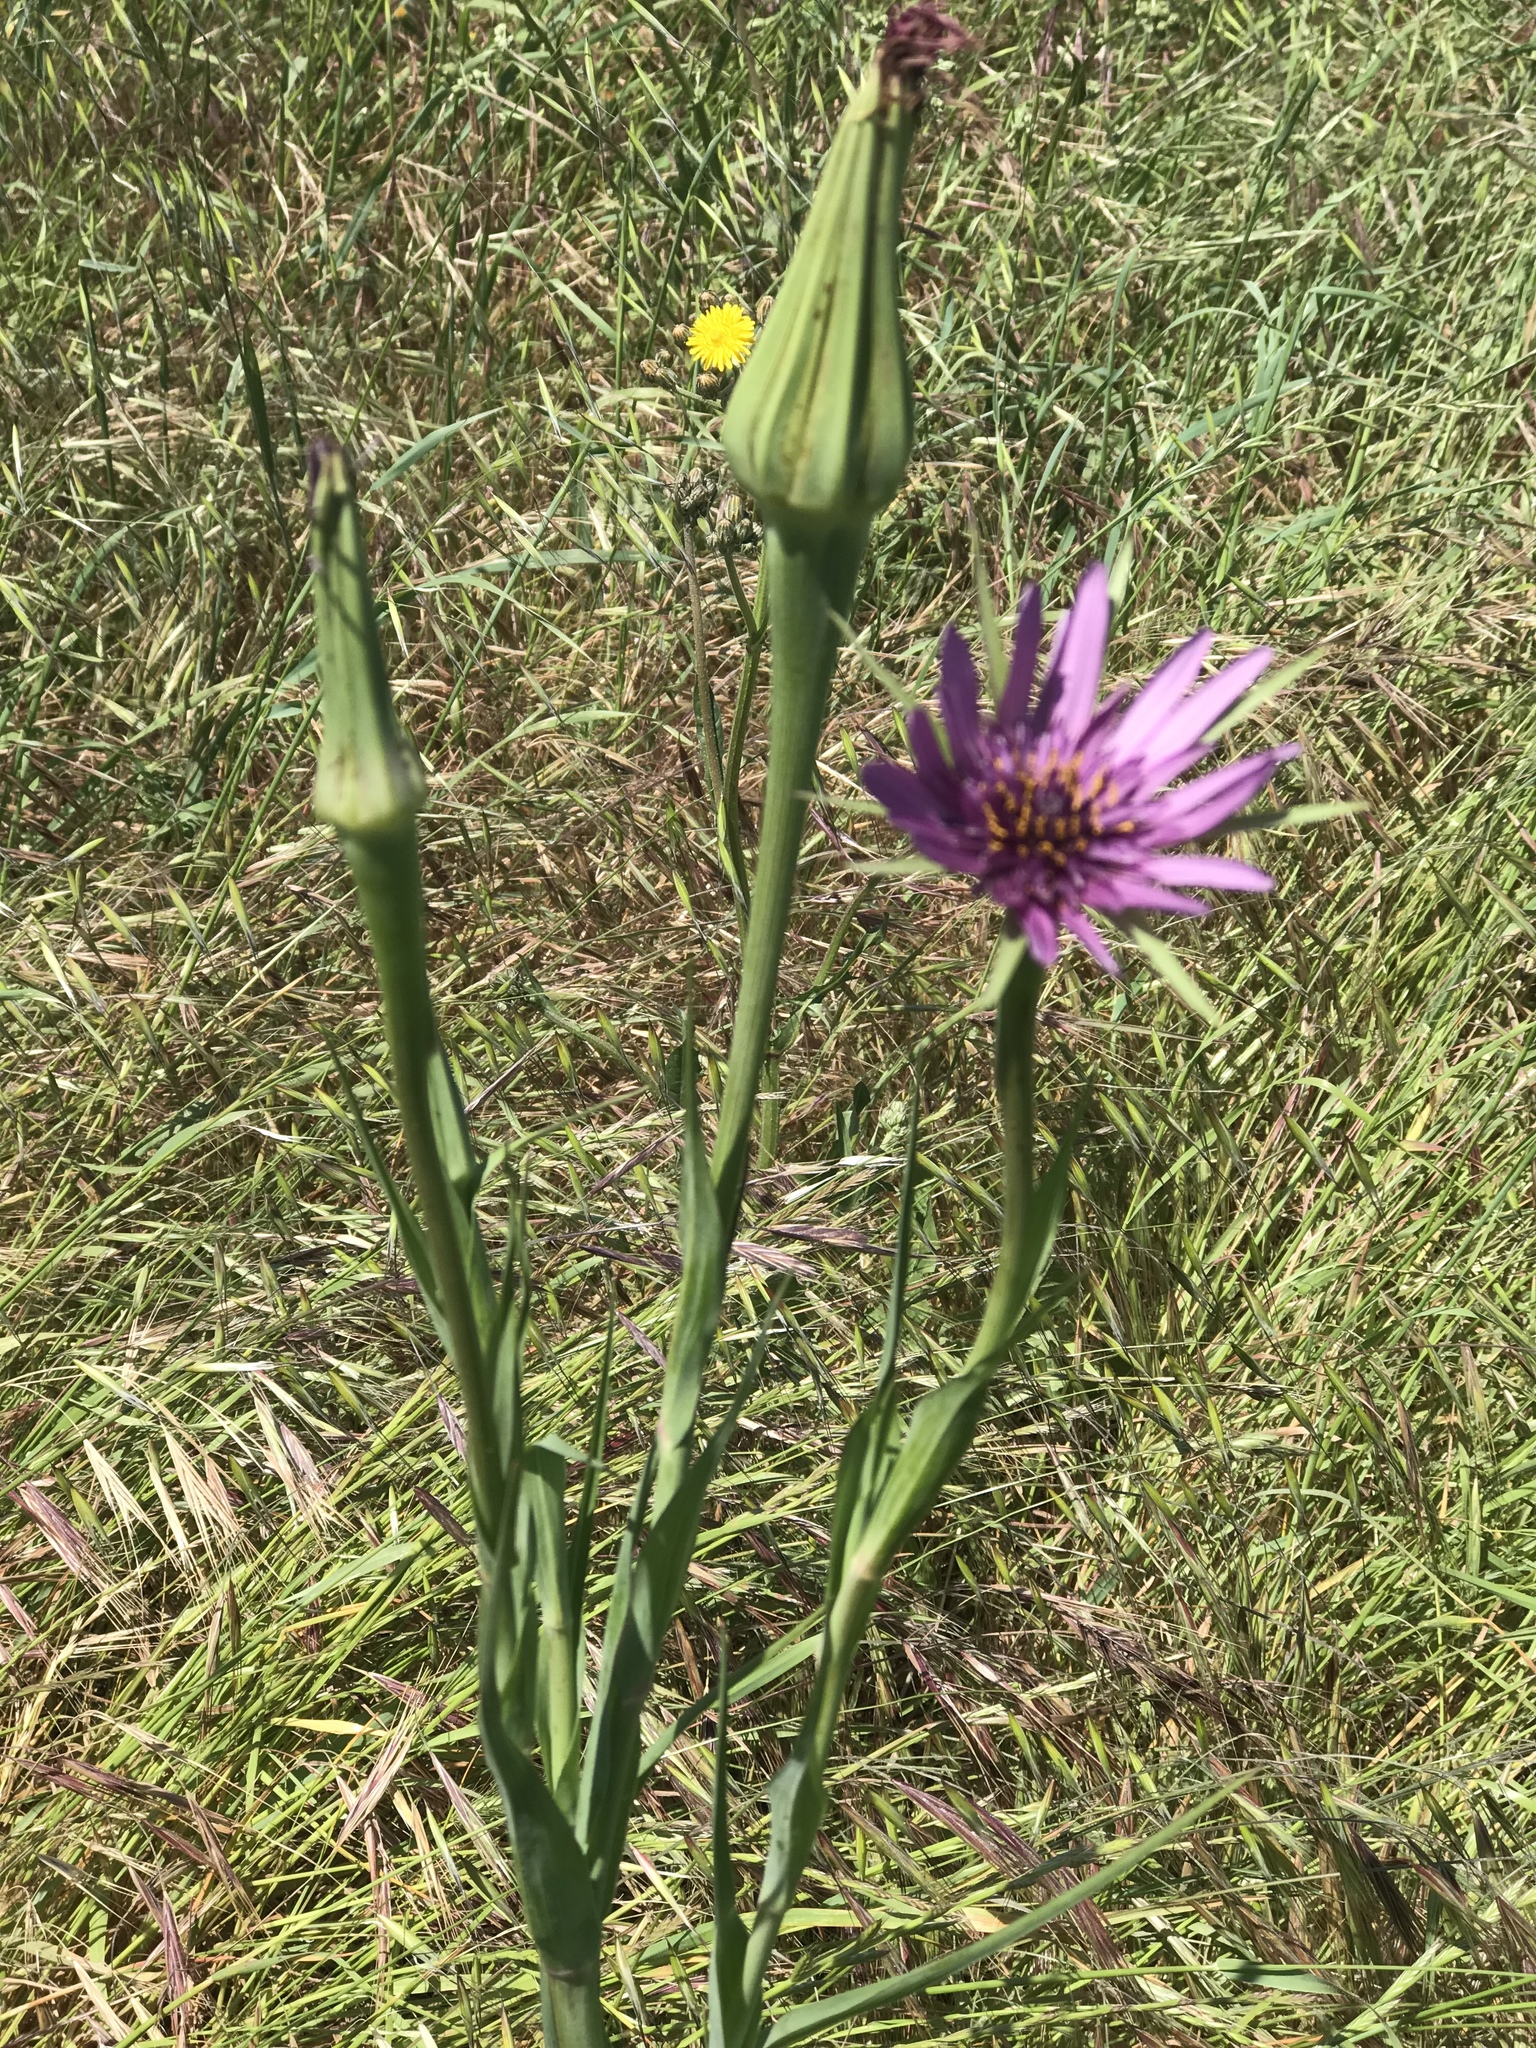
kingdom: Plantae
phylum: Tracheophyta
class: Magnoliopsida
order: Asterales
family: Asteraceae
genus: Tragopogon
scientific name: Tragopogon porrifolius
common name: Salsify
